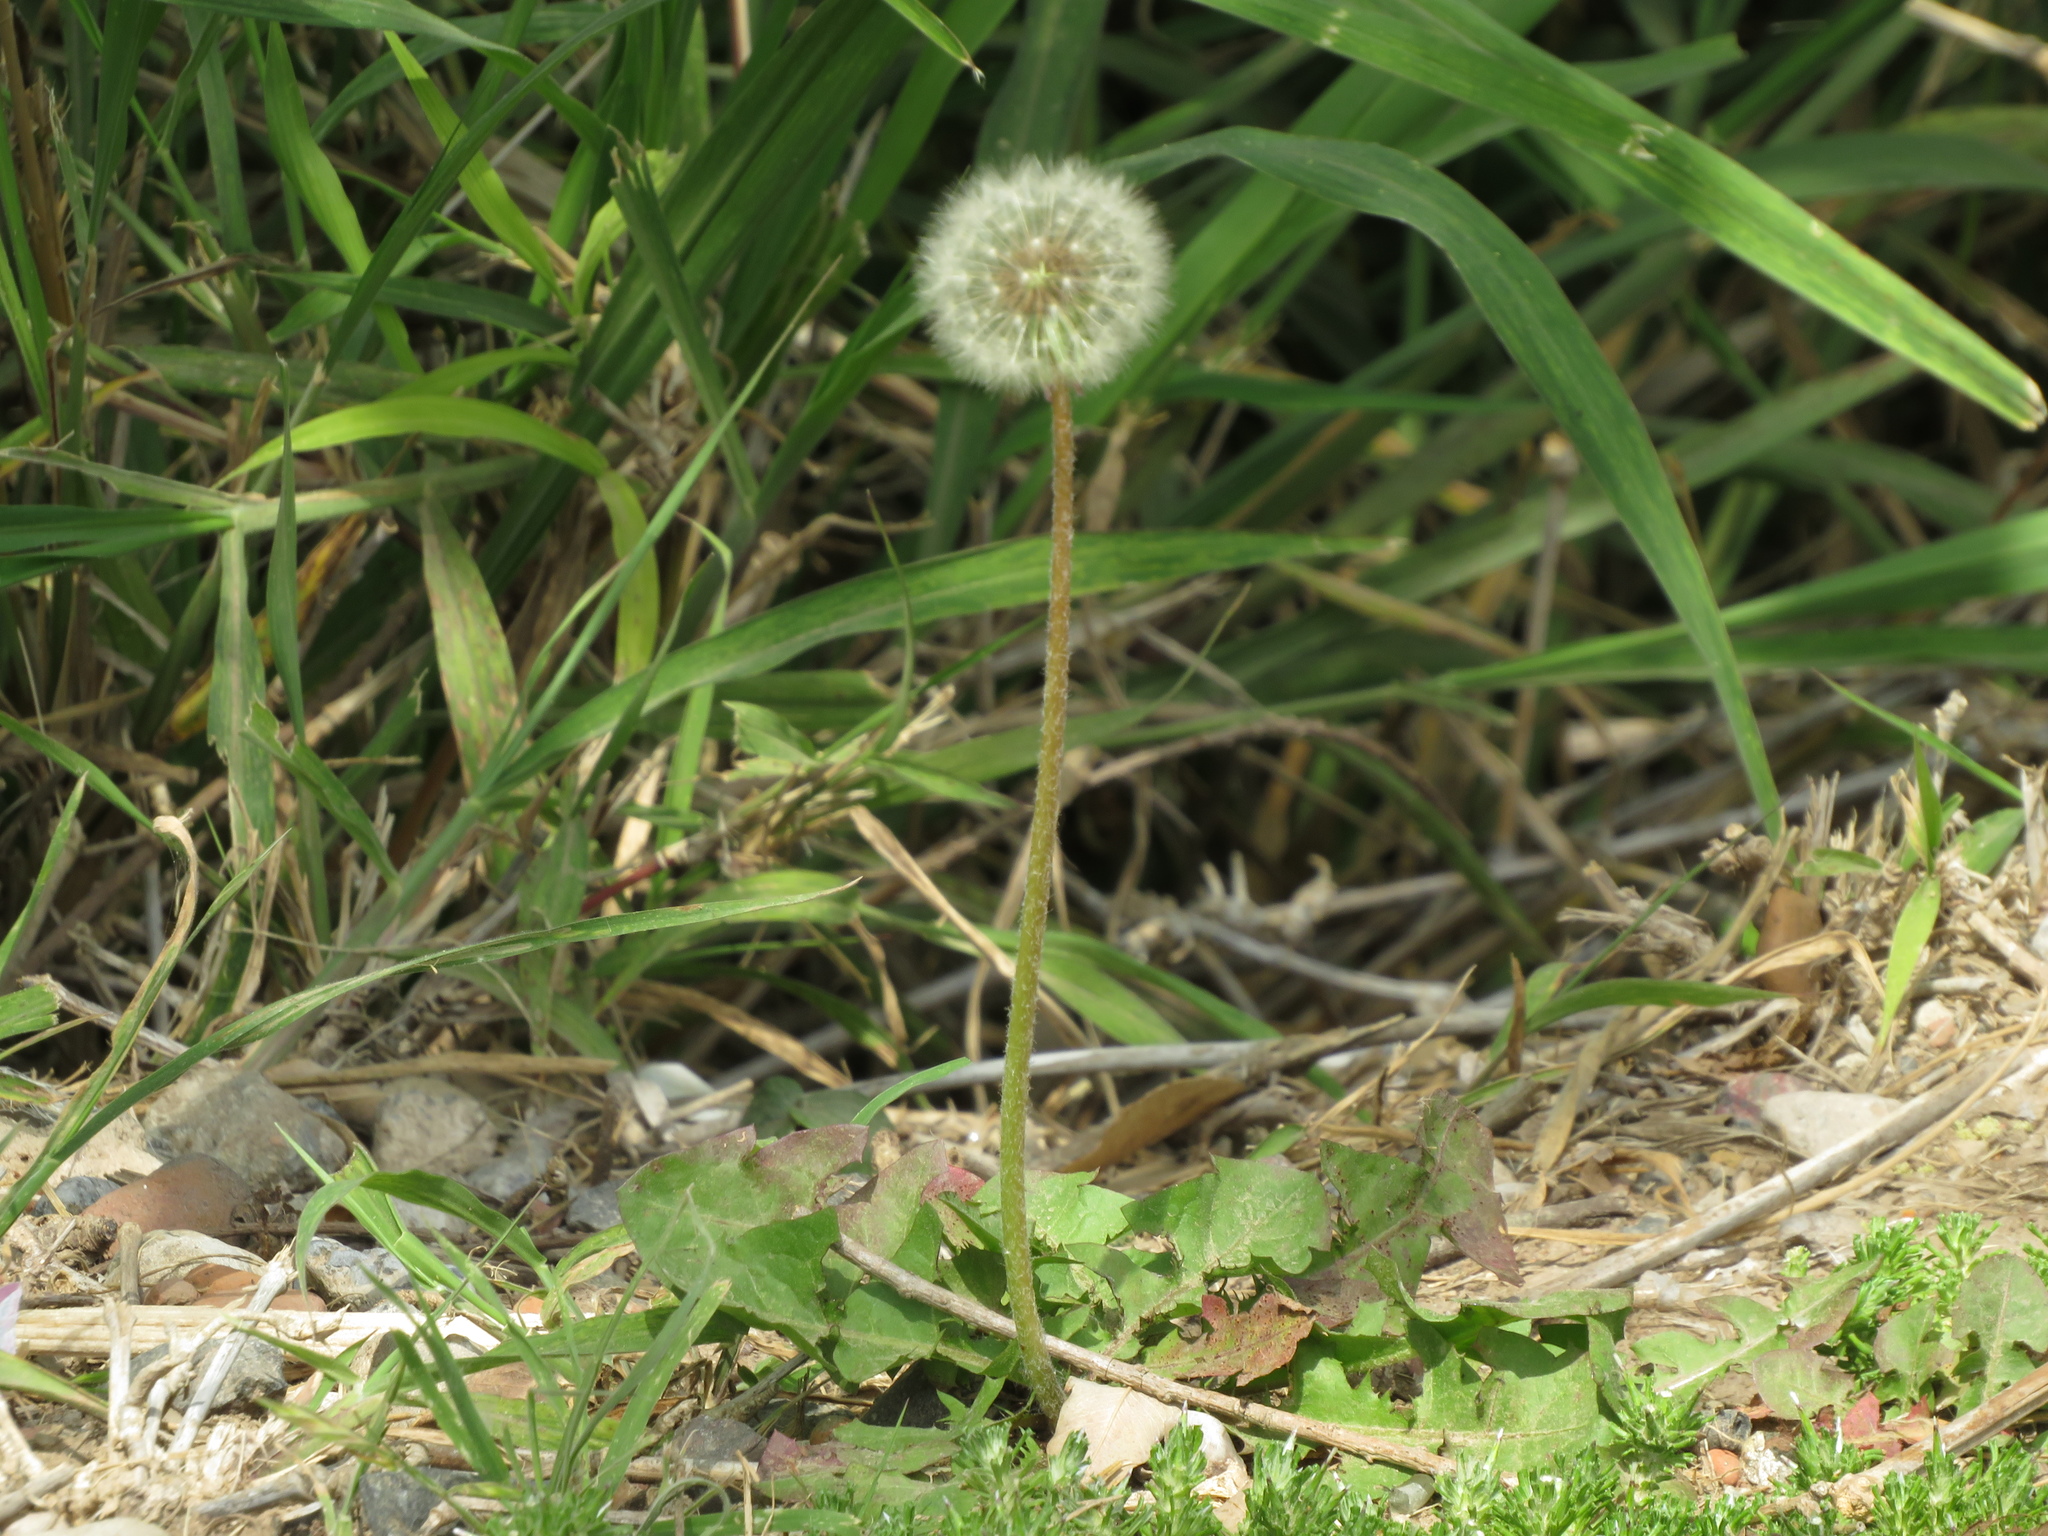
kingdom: Plantae
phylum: Tracheophyta
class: Magnoliopsida
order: Asterales
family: Asteraceae
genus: Taraxacum
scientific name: Taraxacum officinale
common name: Common dandelion
